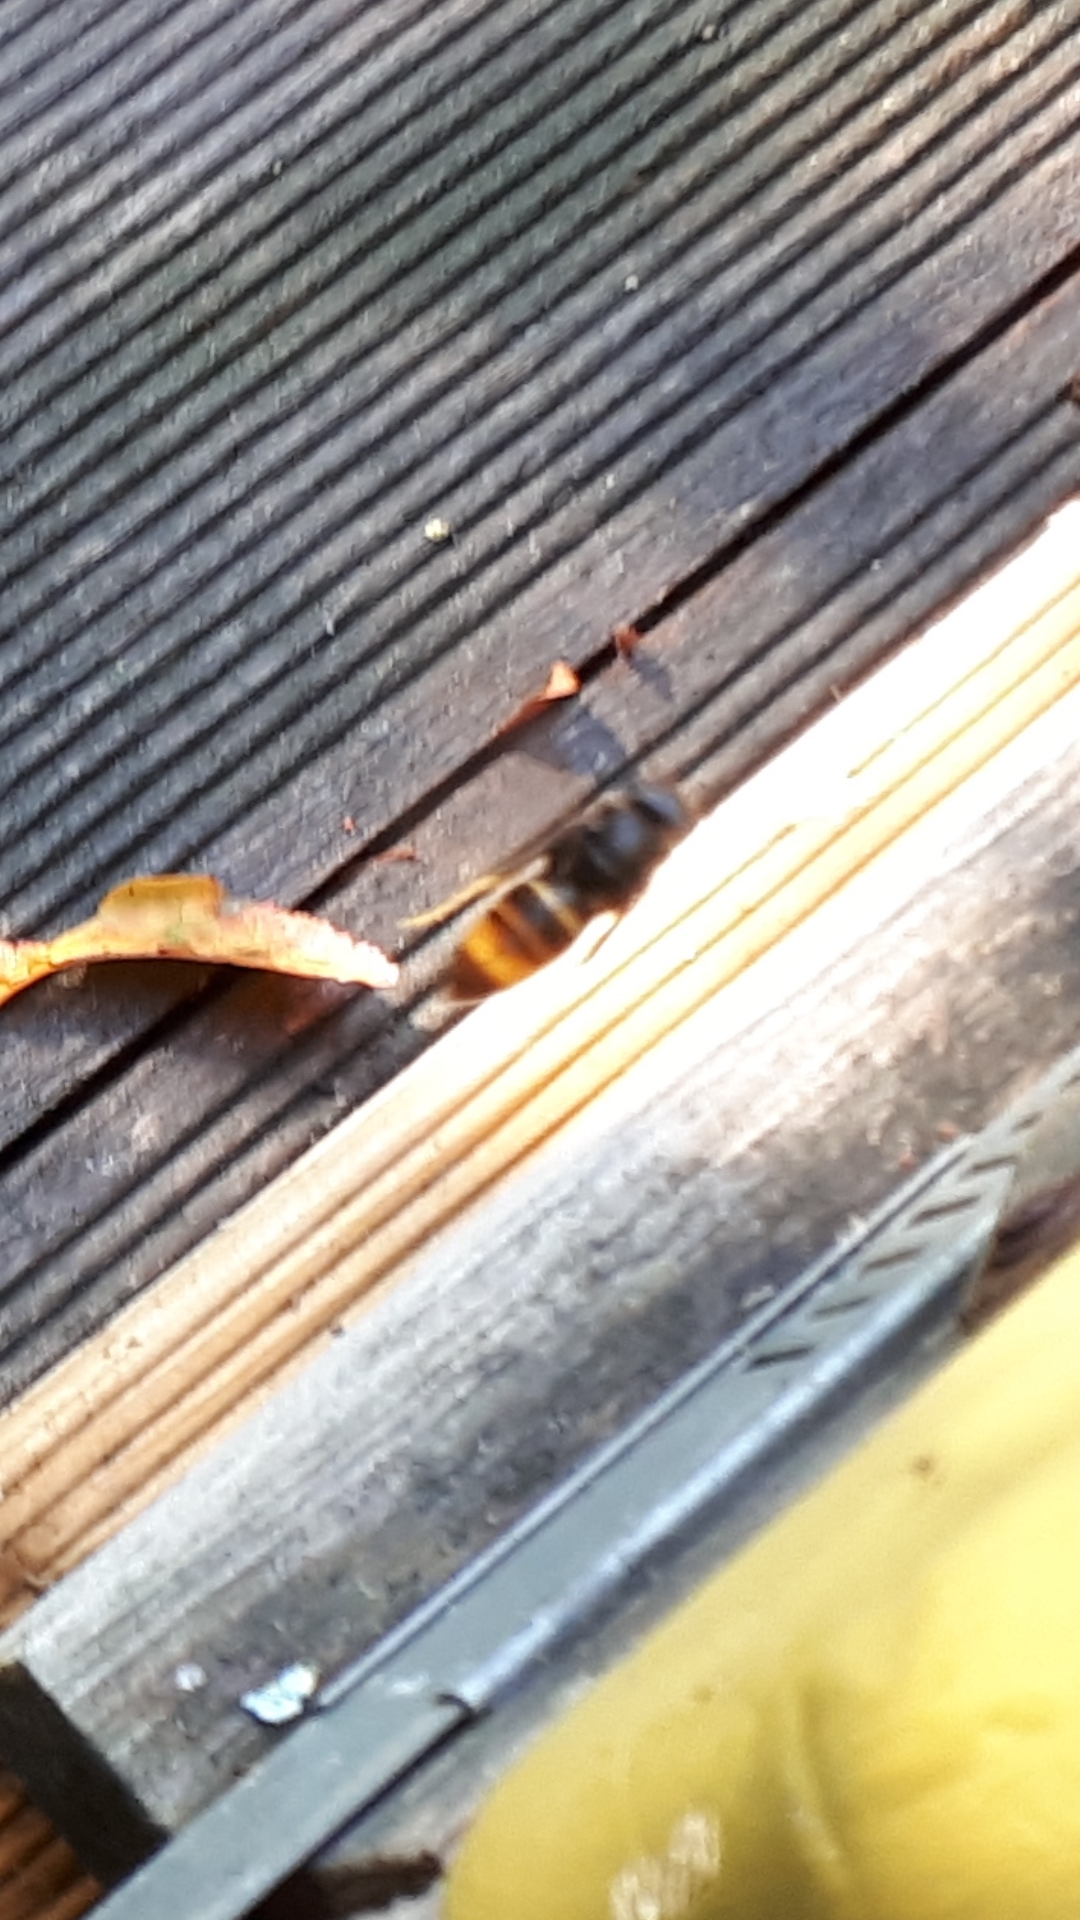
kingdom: Animalia
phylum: Arthropoda
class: Insecta
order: Hymenoptera
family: Vespidae
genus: Vespa
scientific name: Vespa velutina
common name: Asian hornet
